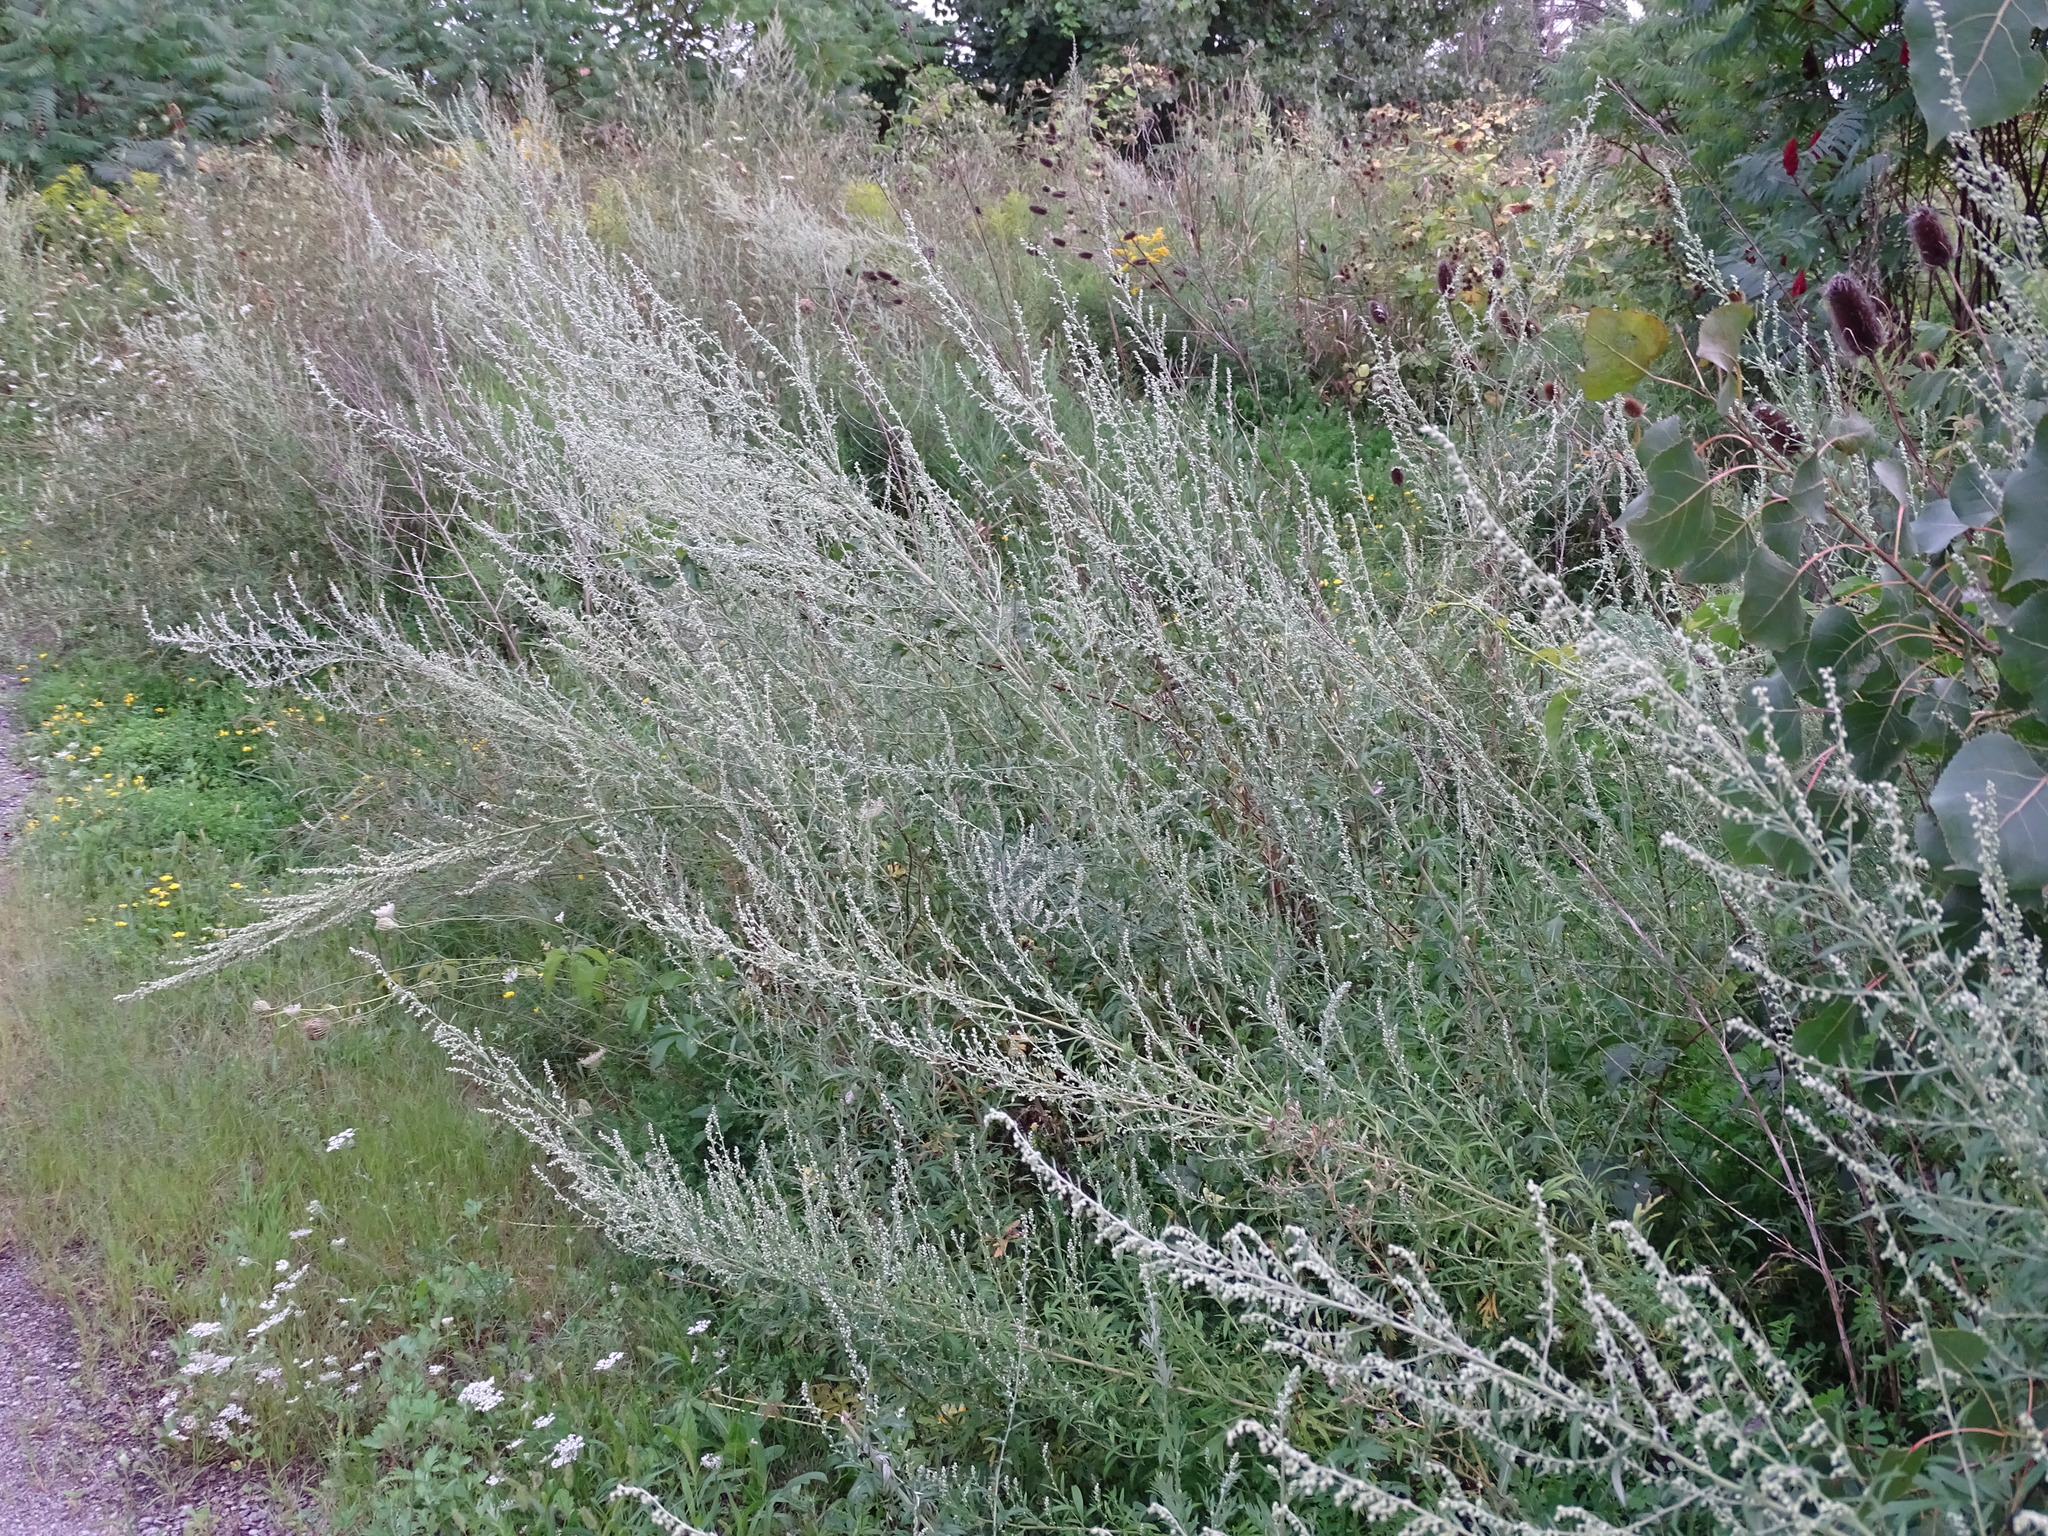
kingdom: Plantae
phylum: Tracheophyta
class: Magnoliopsida
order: Asterales
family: Asteraceae
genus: Artemisia
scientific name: Artemisia vulgaris
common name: Mugwort
